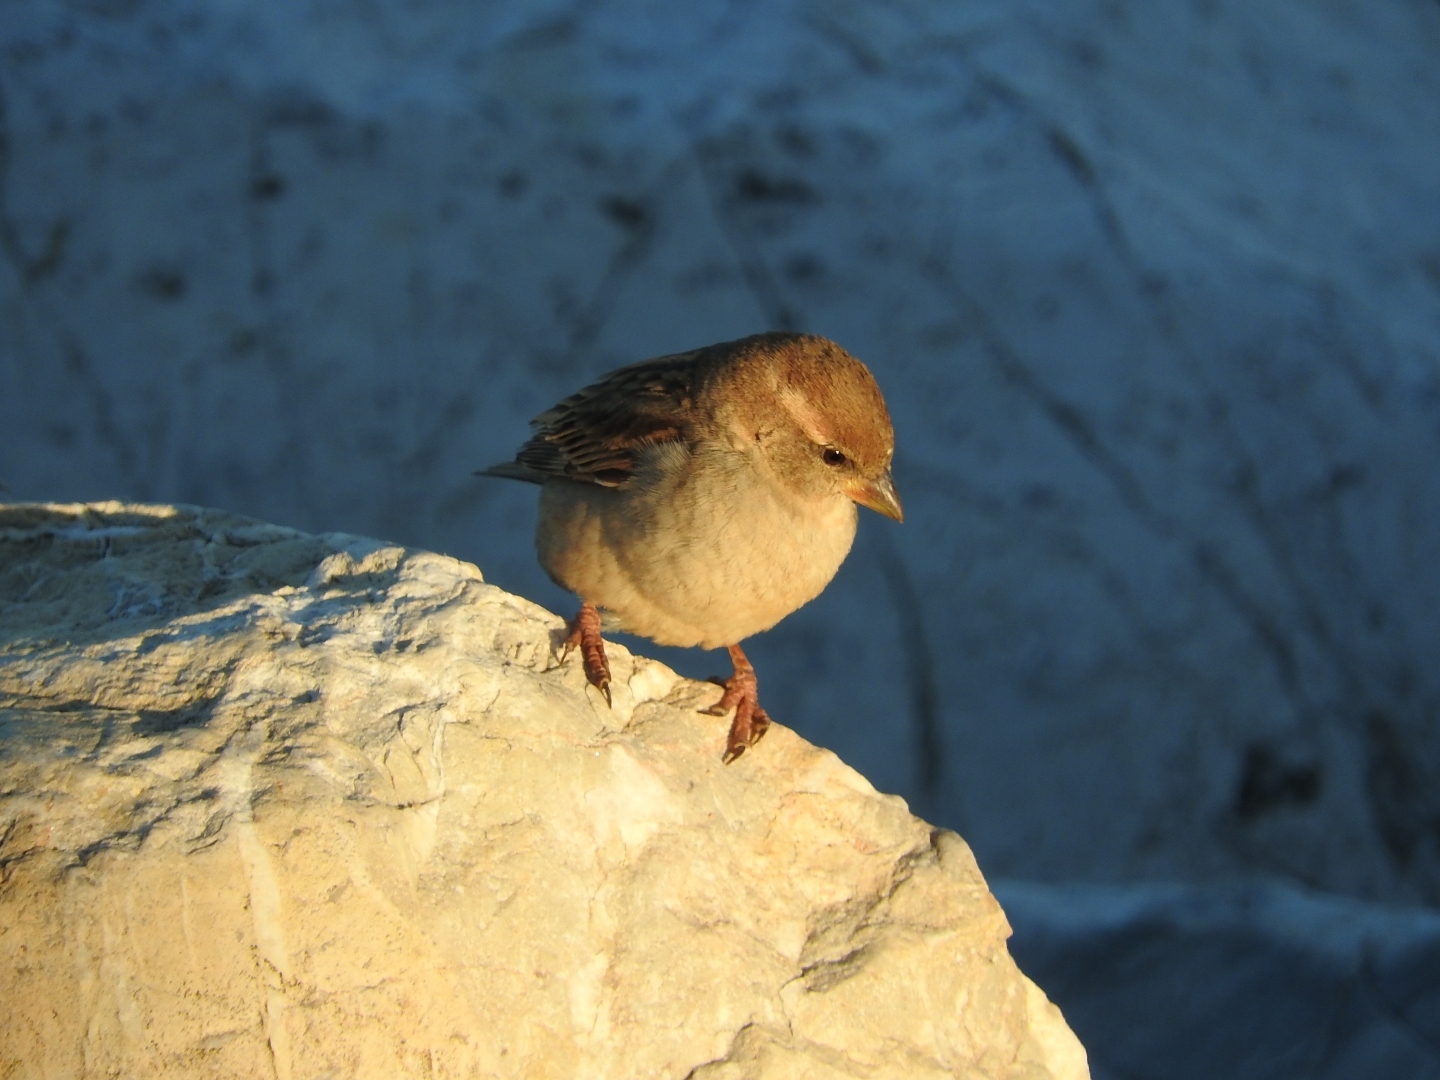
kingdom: Animalia
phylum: Chordata
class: Aves
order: Passeriformes
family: Passeridae
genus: Passer
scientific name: Passer italiae
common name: Italian sparrow
